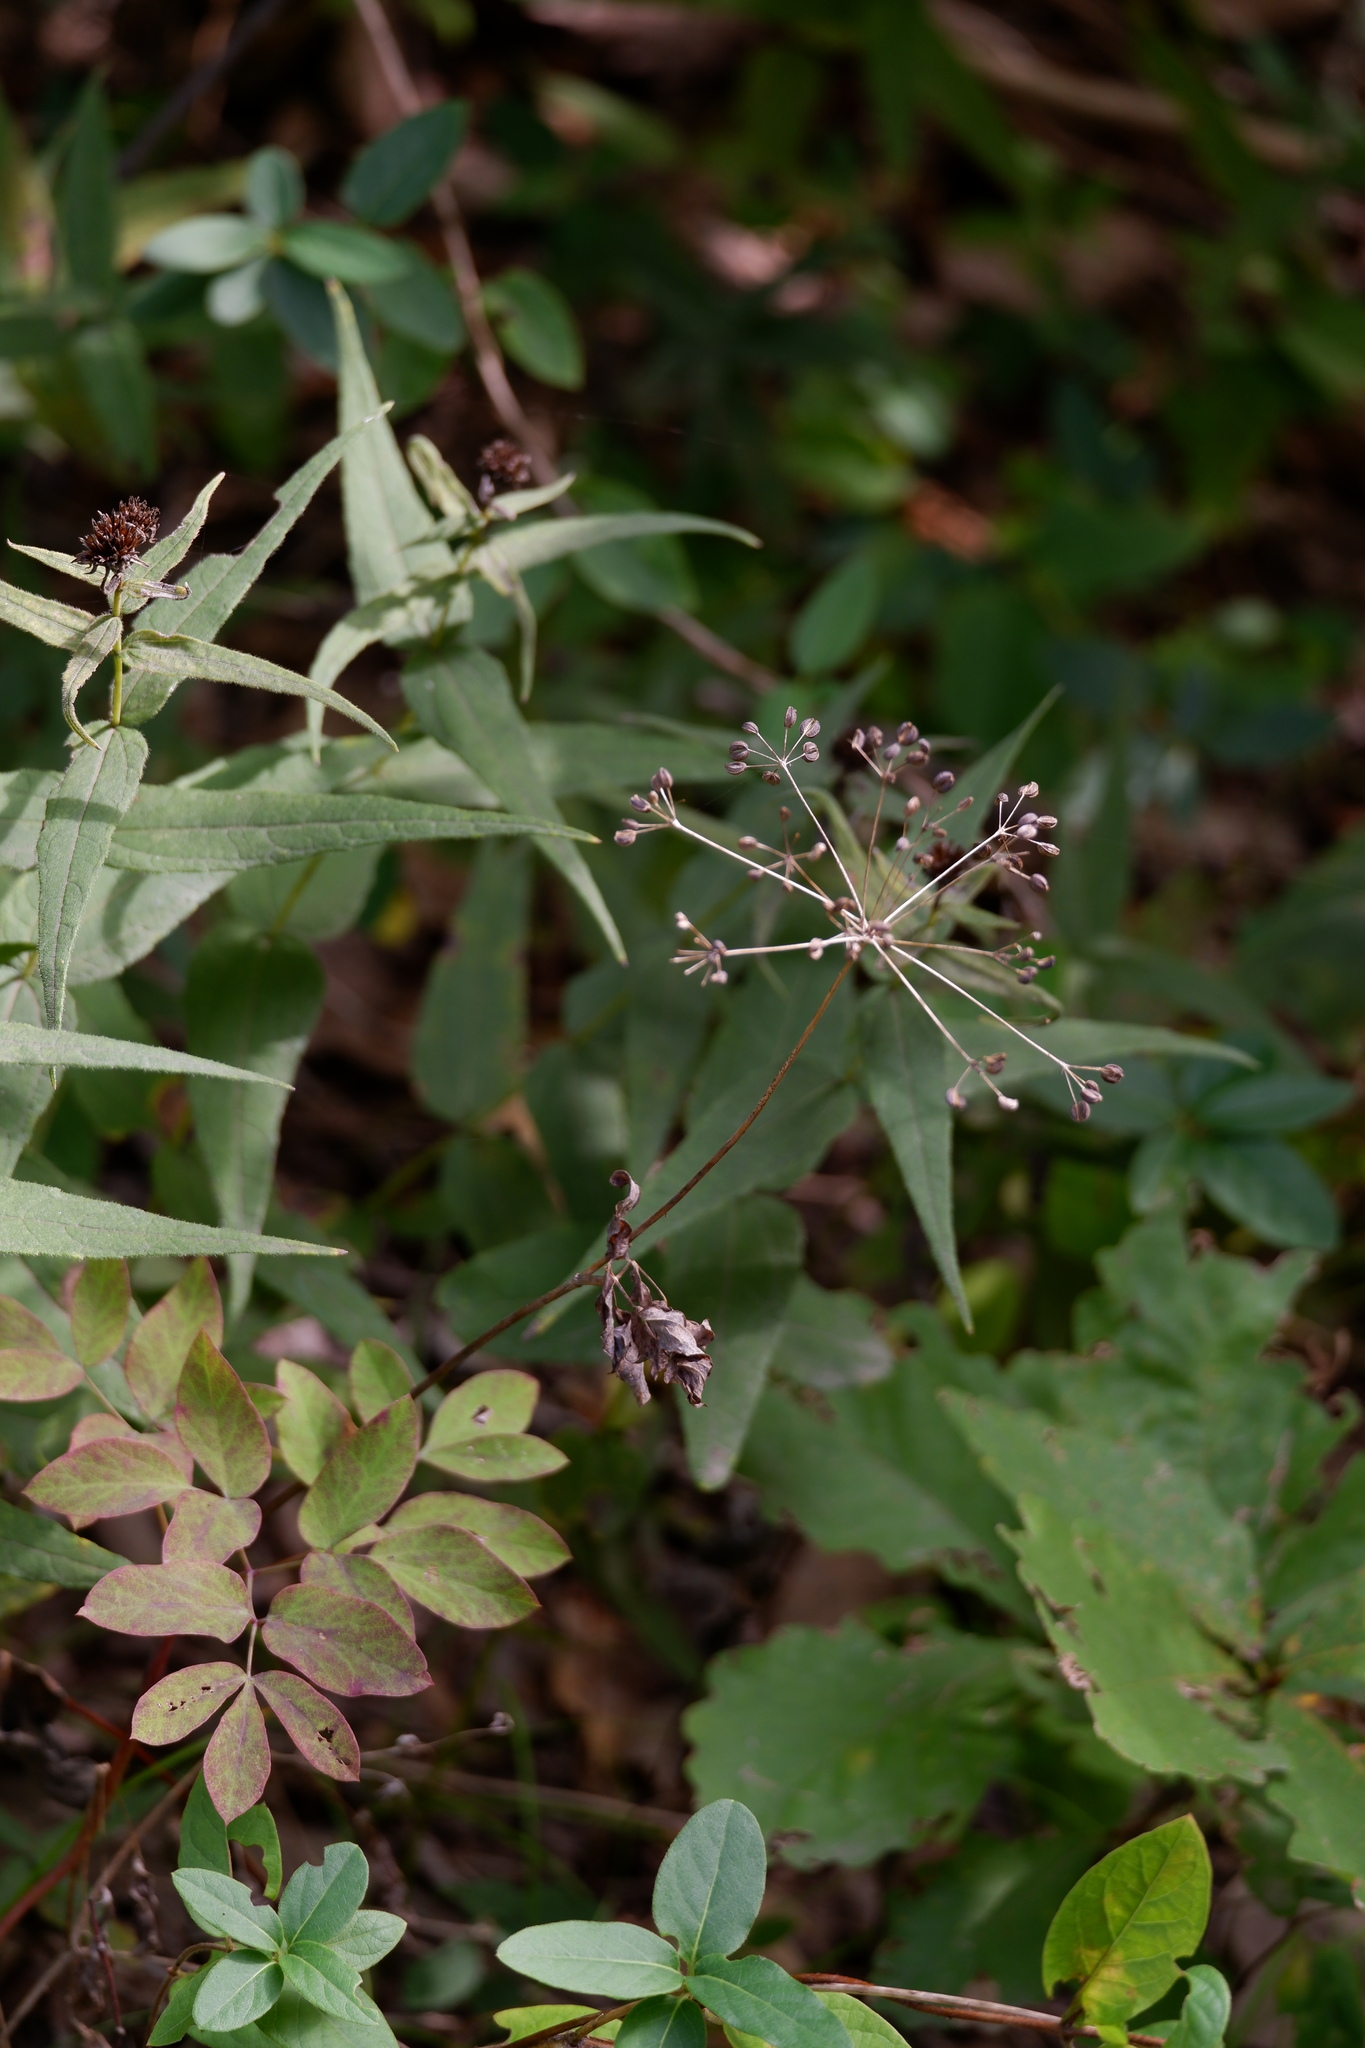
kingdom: Plantae
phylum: Tracheophyta
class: Magnoliopsida
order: Apiales
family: Apiaceae
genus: Taenidia
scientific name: Taenidia integerrima
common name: Golden alexander
